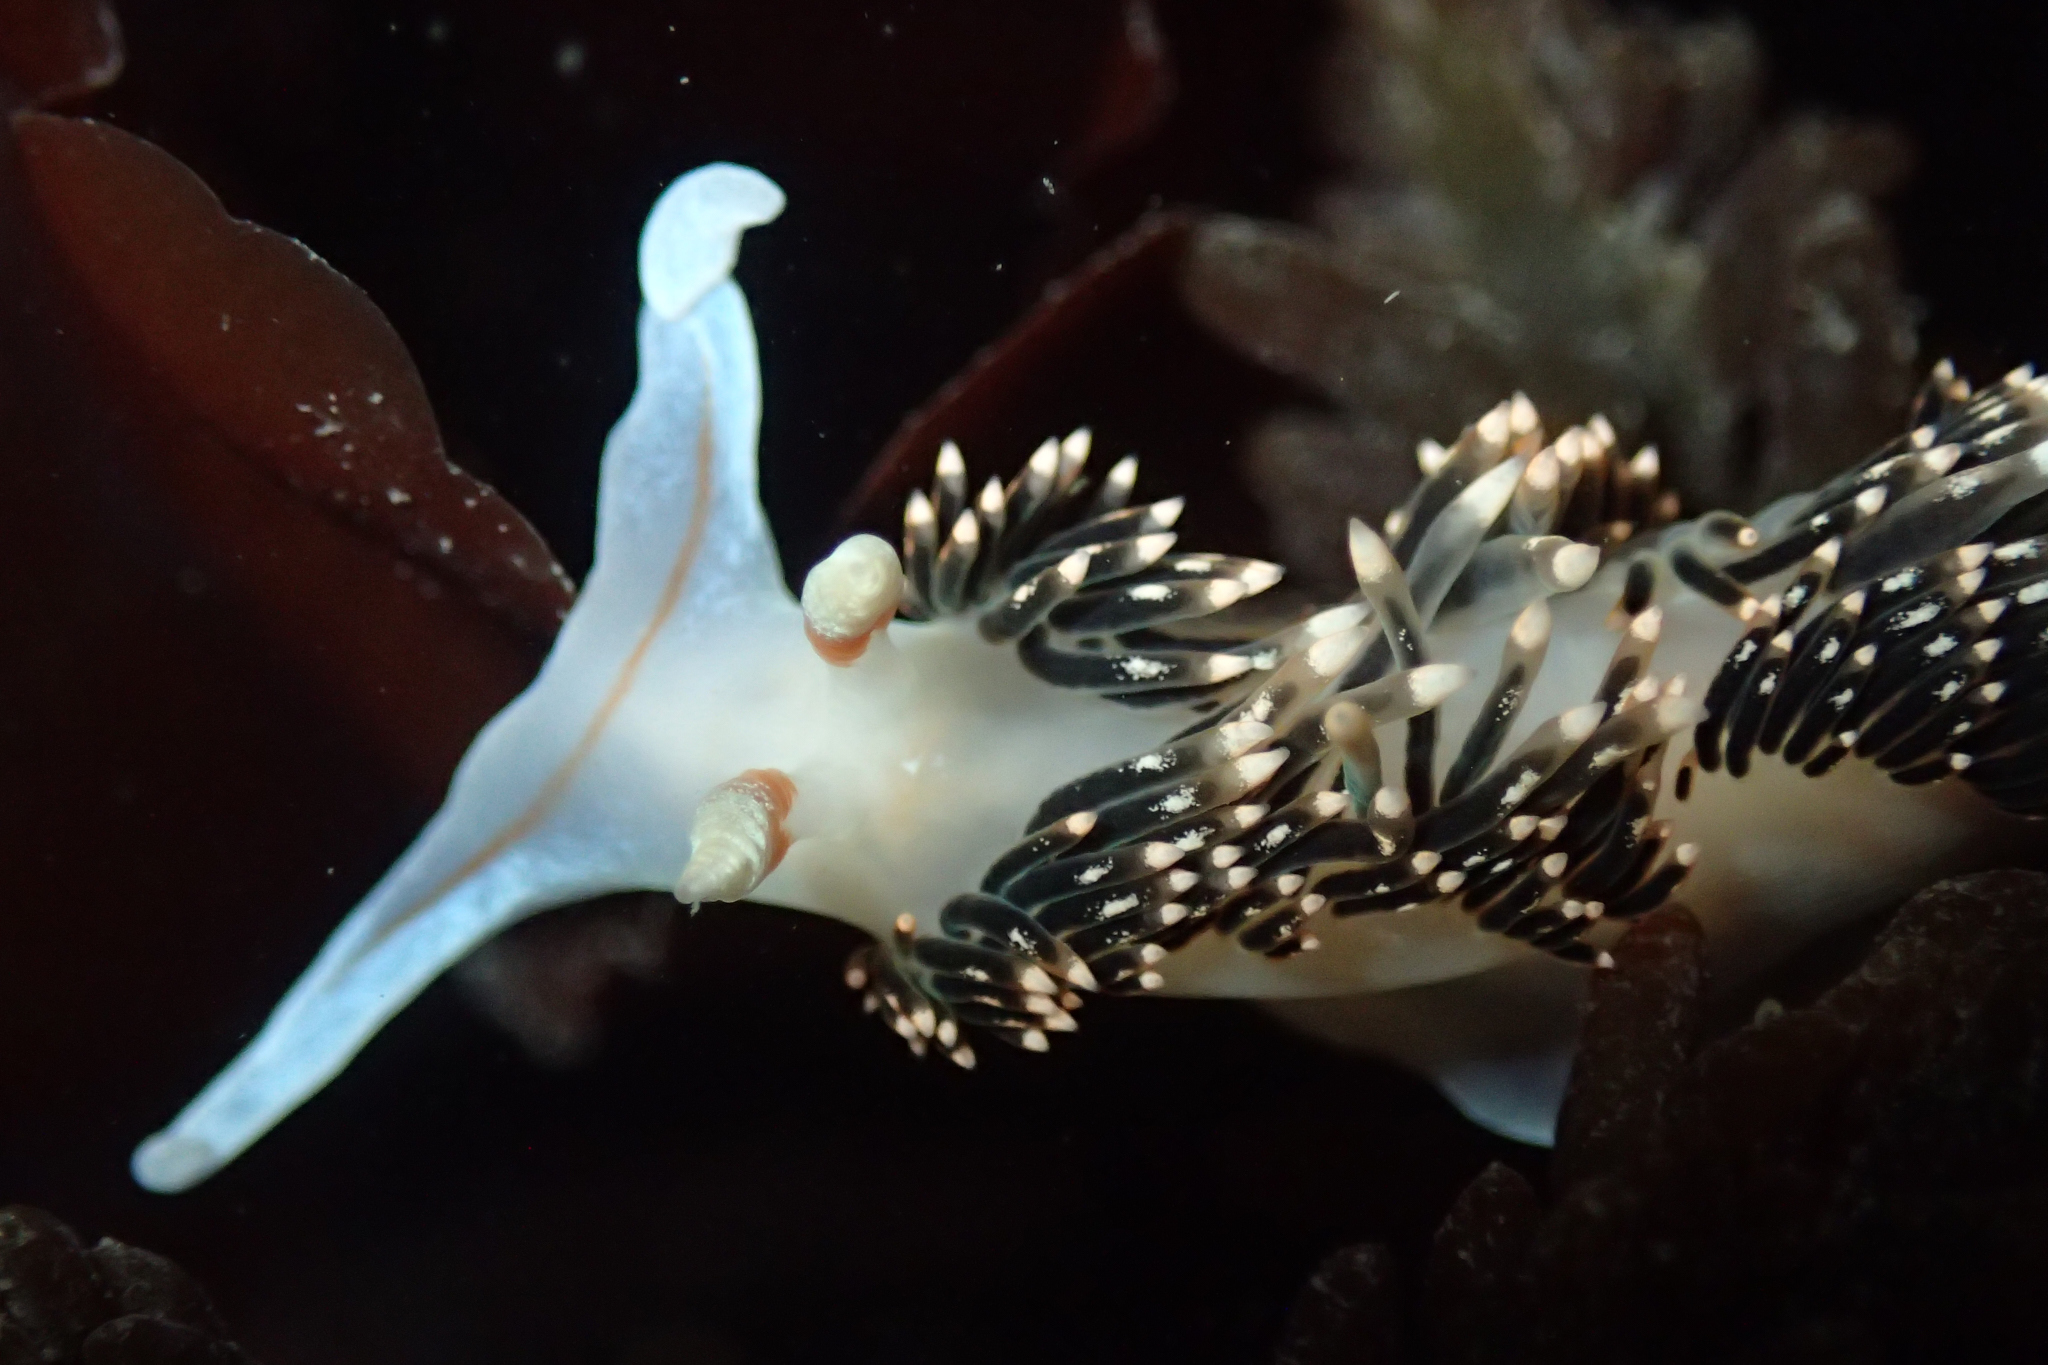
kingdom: Animalia
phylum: Mollusca
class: Gastropoda
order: Nudibranchia
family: Facelinidae
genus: Phidiana
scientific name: Phidiana hiltoni
